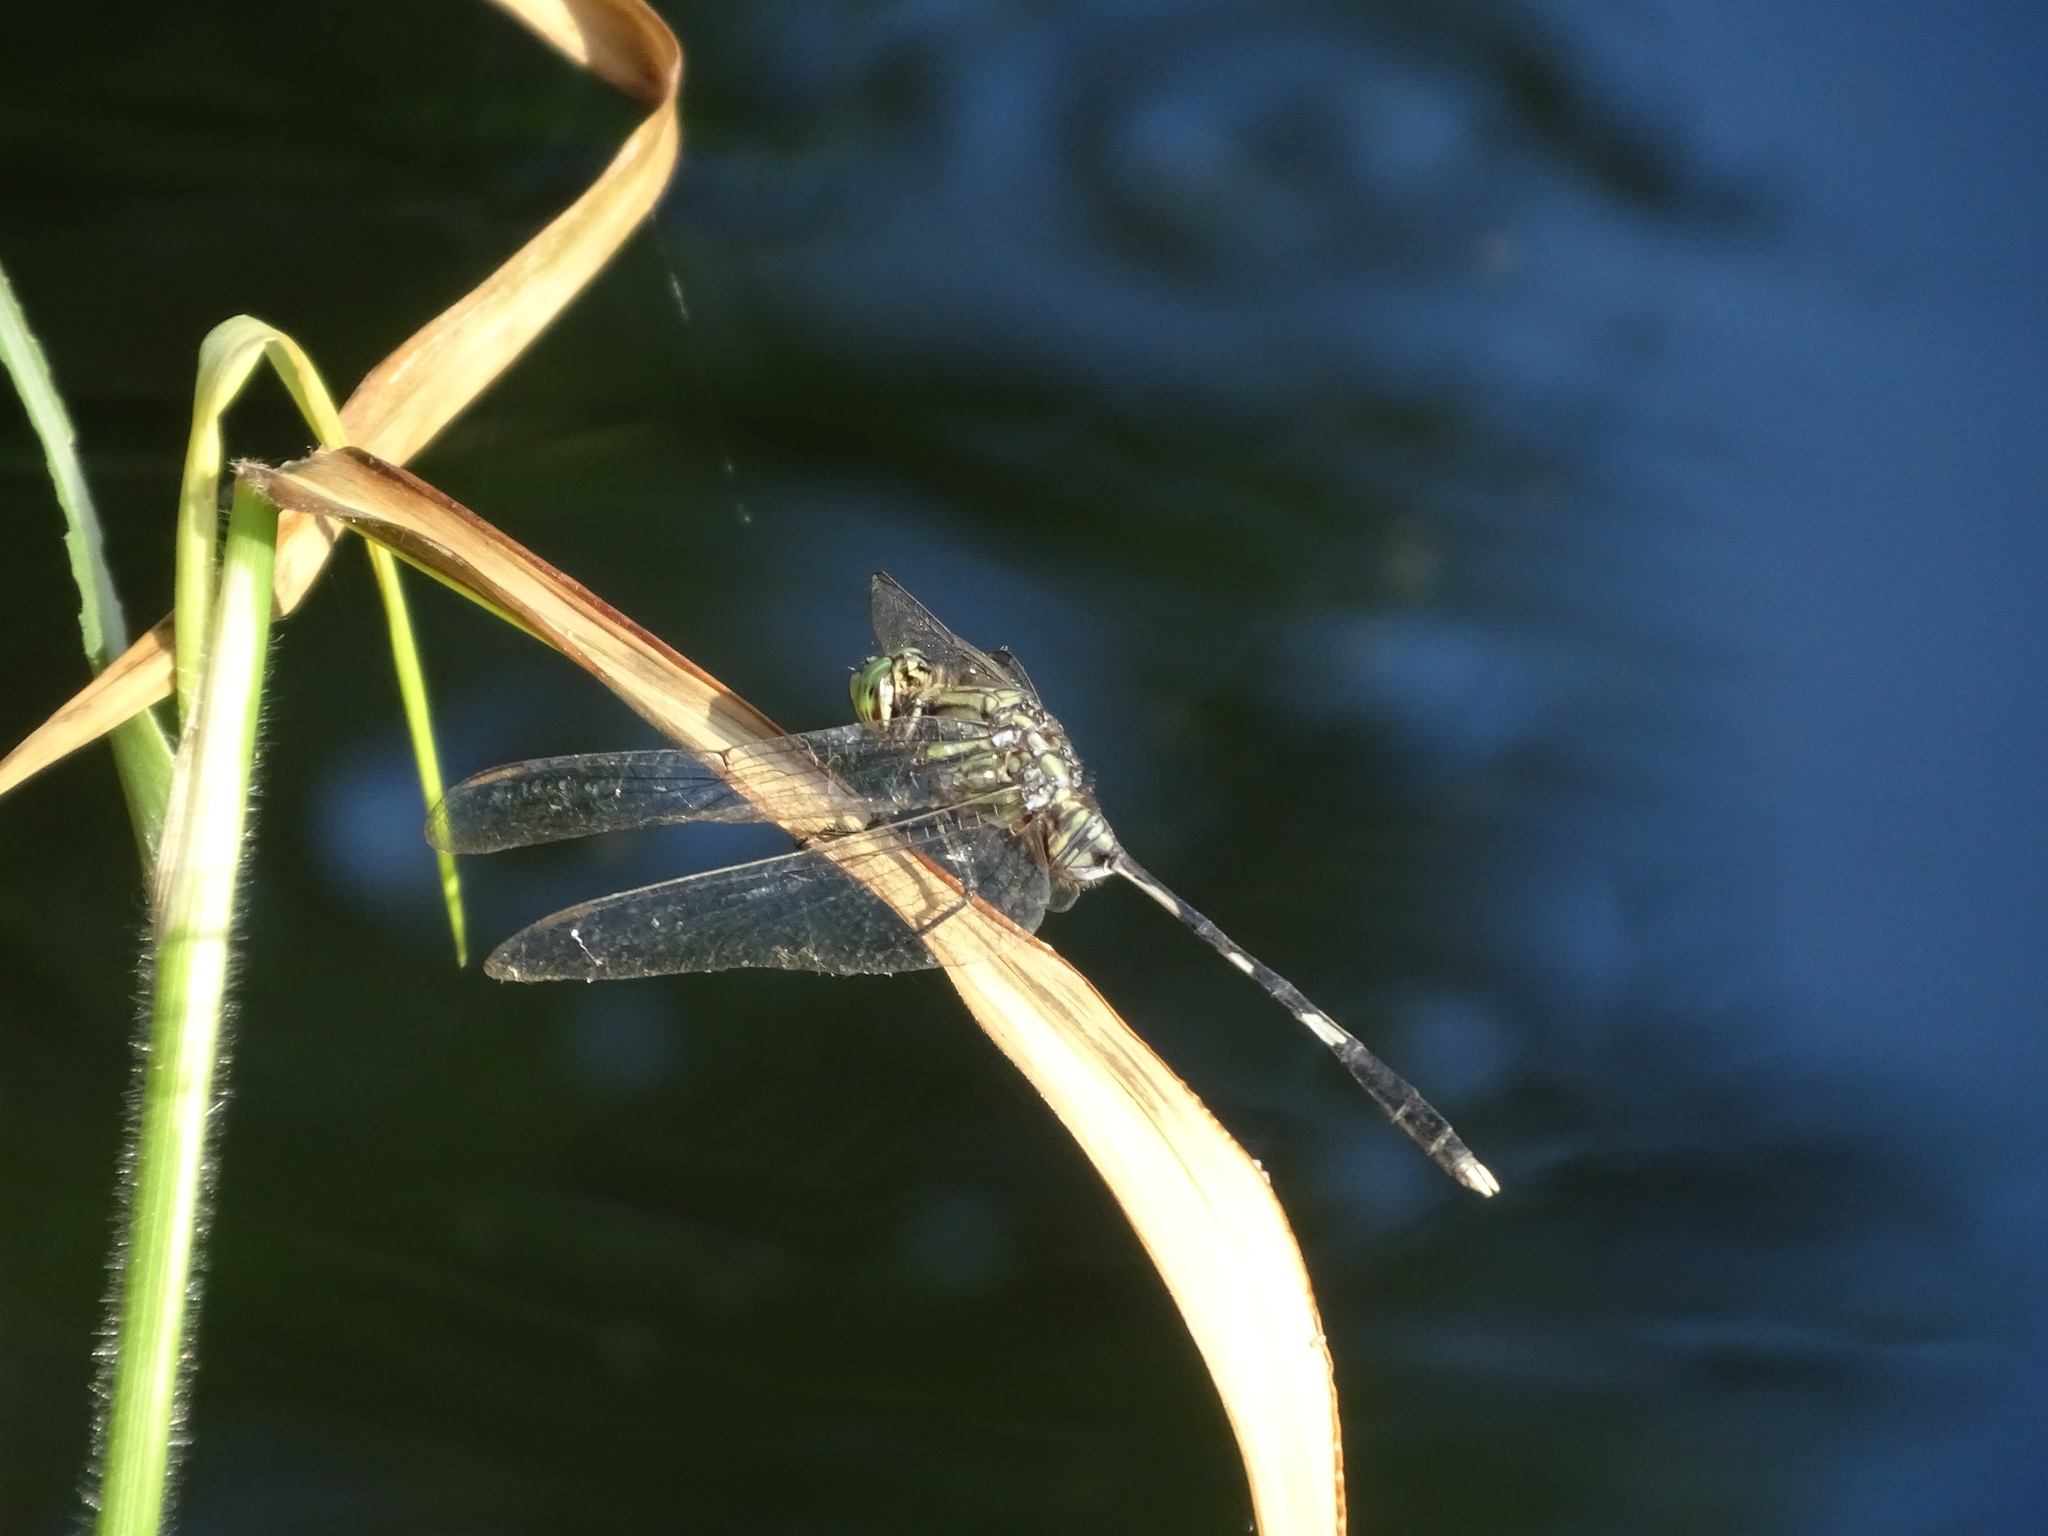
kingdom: Animalia
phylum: Arthropoda
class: Insecta
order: Odonata
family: Libellulidae
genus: Orthetrum
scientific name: Orthetrum sabina
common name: Slender skimmer
